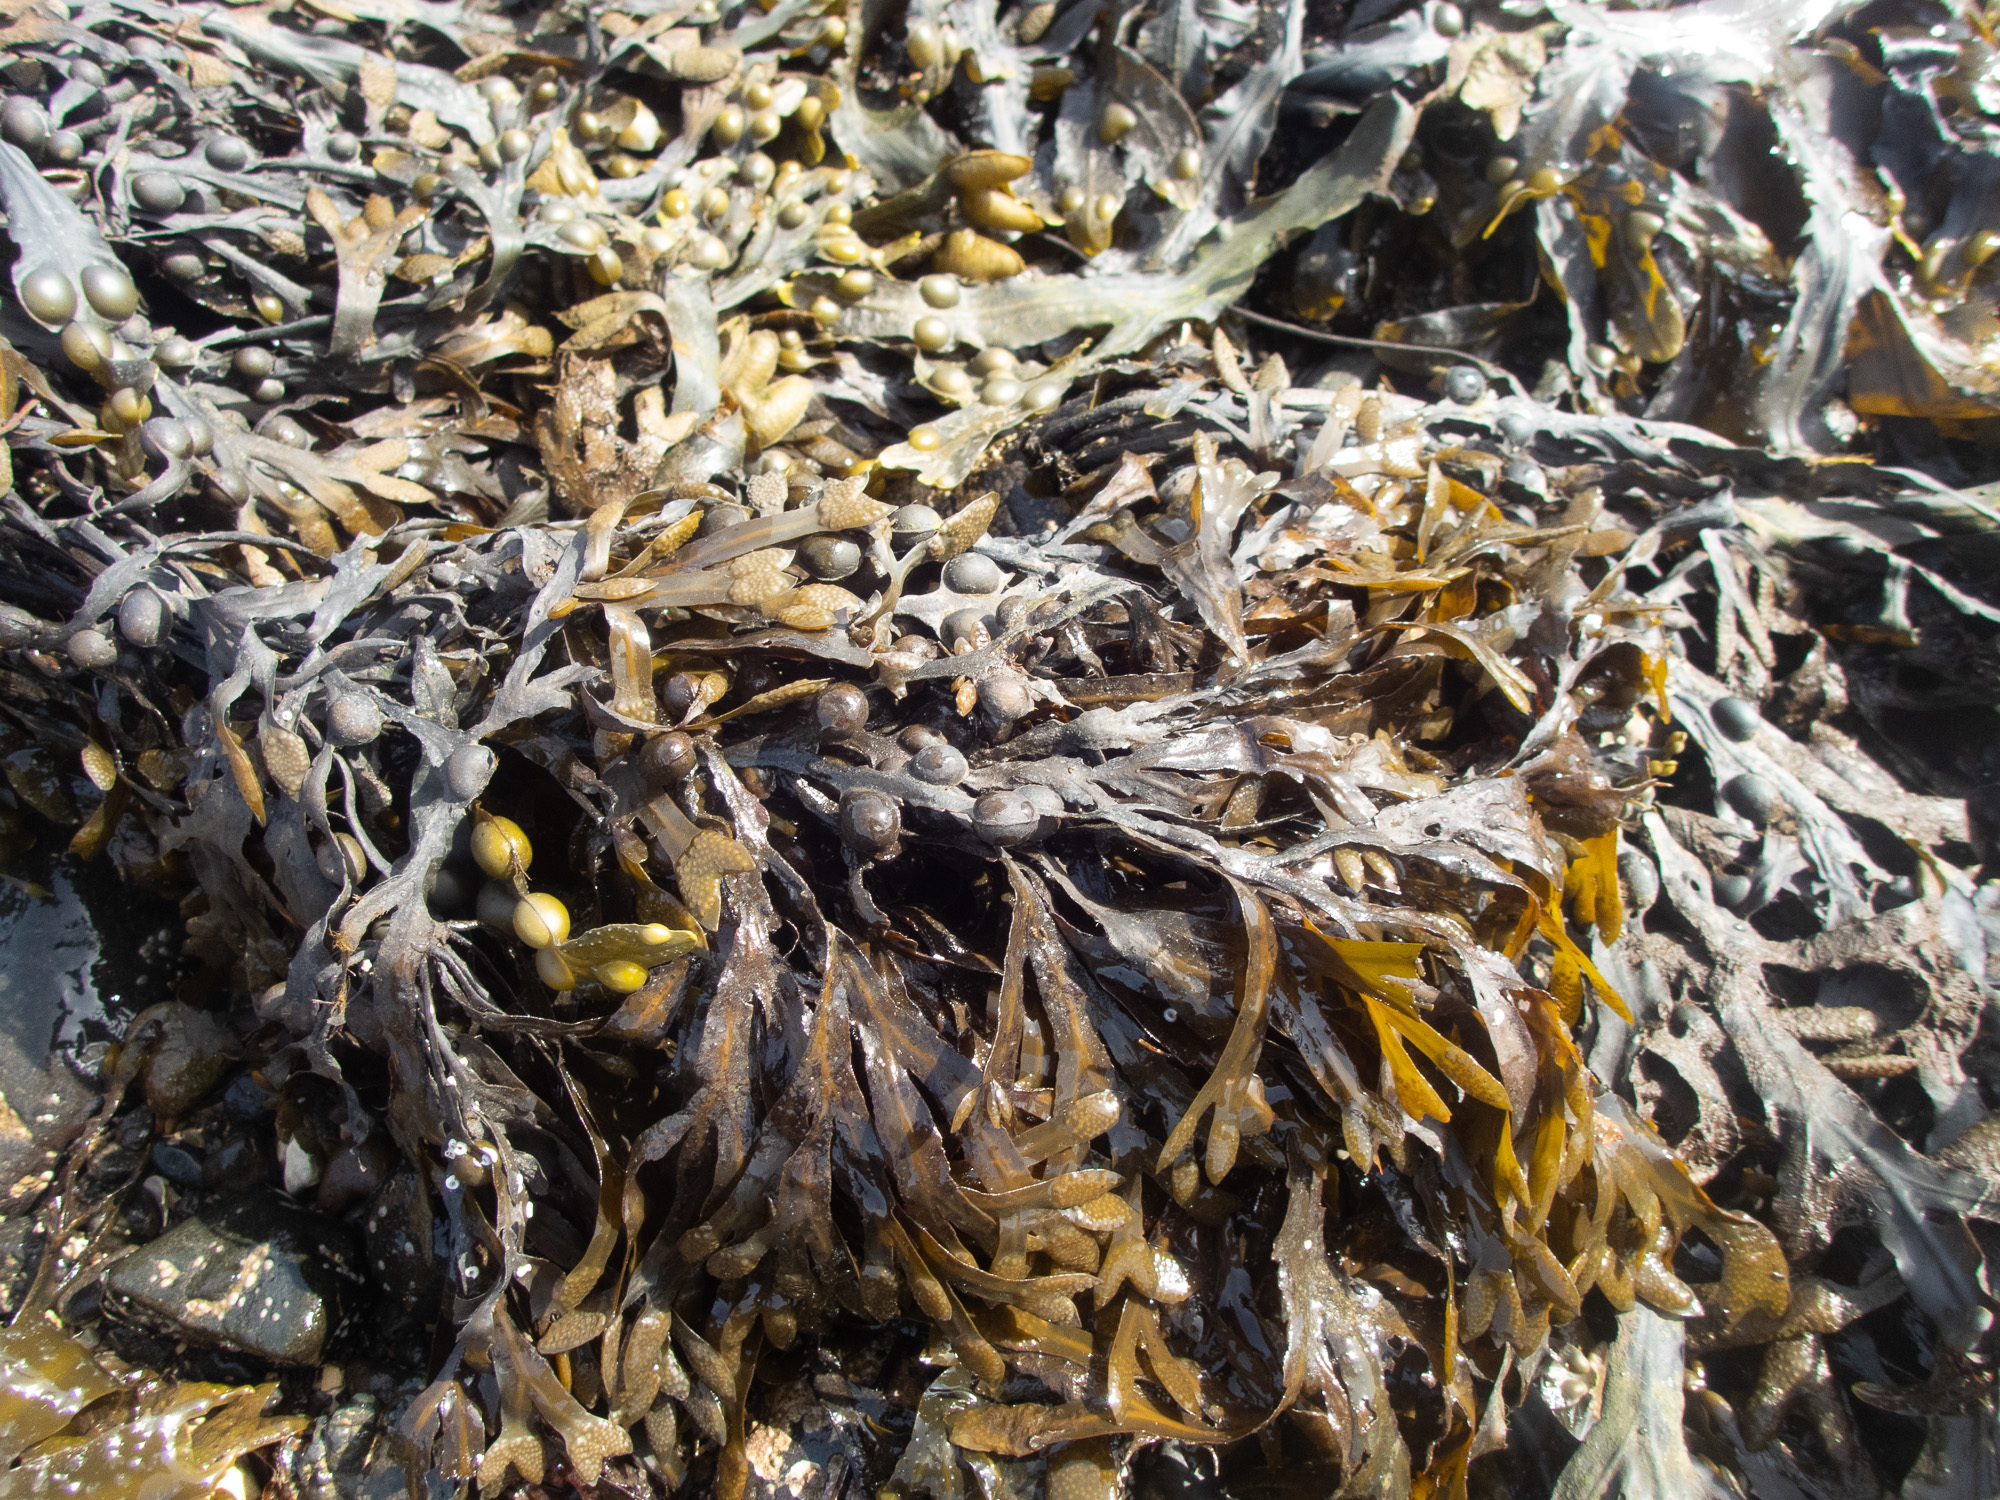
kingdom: Chromista
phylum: Ochrophyta
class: Phaeophyceae
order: Fucales
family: Fucaceae
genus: Fucus
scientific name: Fucus vesiculosus
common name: Bladder wrack
